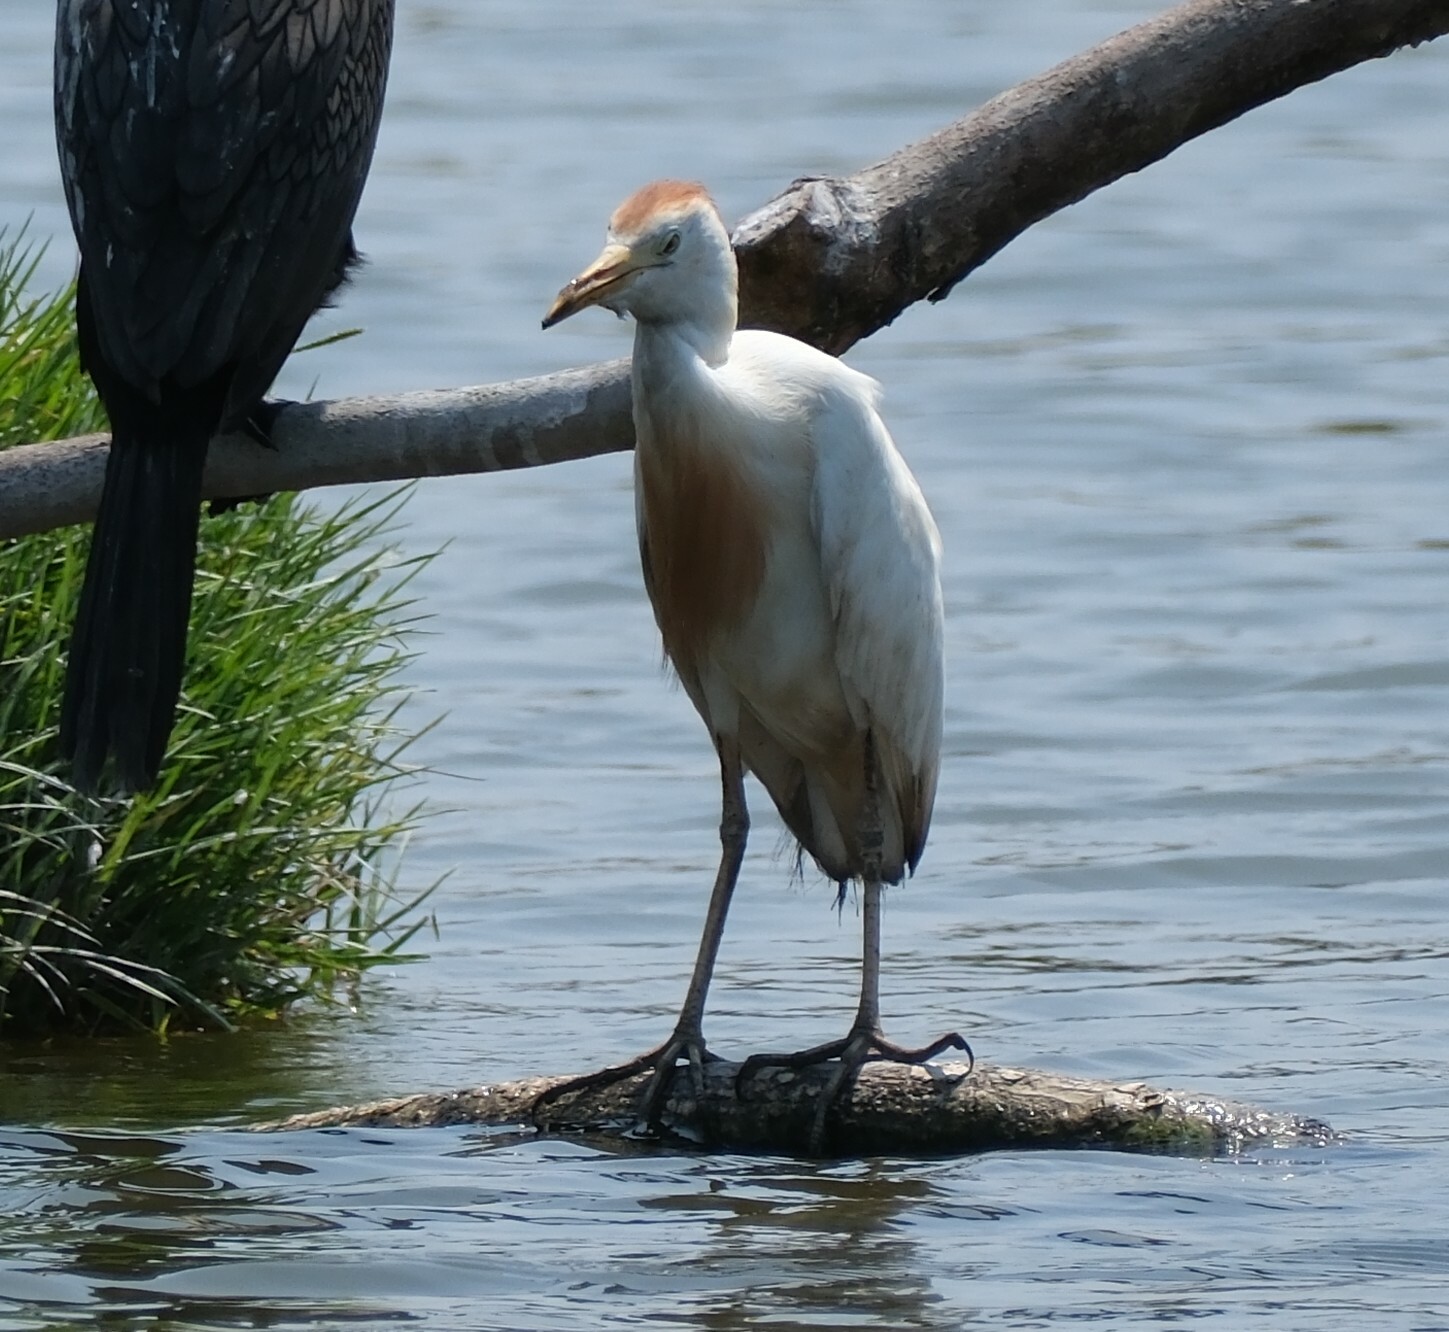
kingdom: Animalia
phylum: Chordata
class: Aves
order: Pelecaniformes
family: Ardeidae
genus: Bubulcus
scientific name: Bubulcus ibis
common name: Cattle egret
